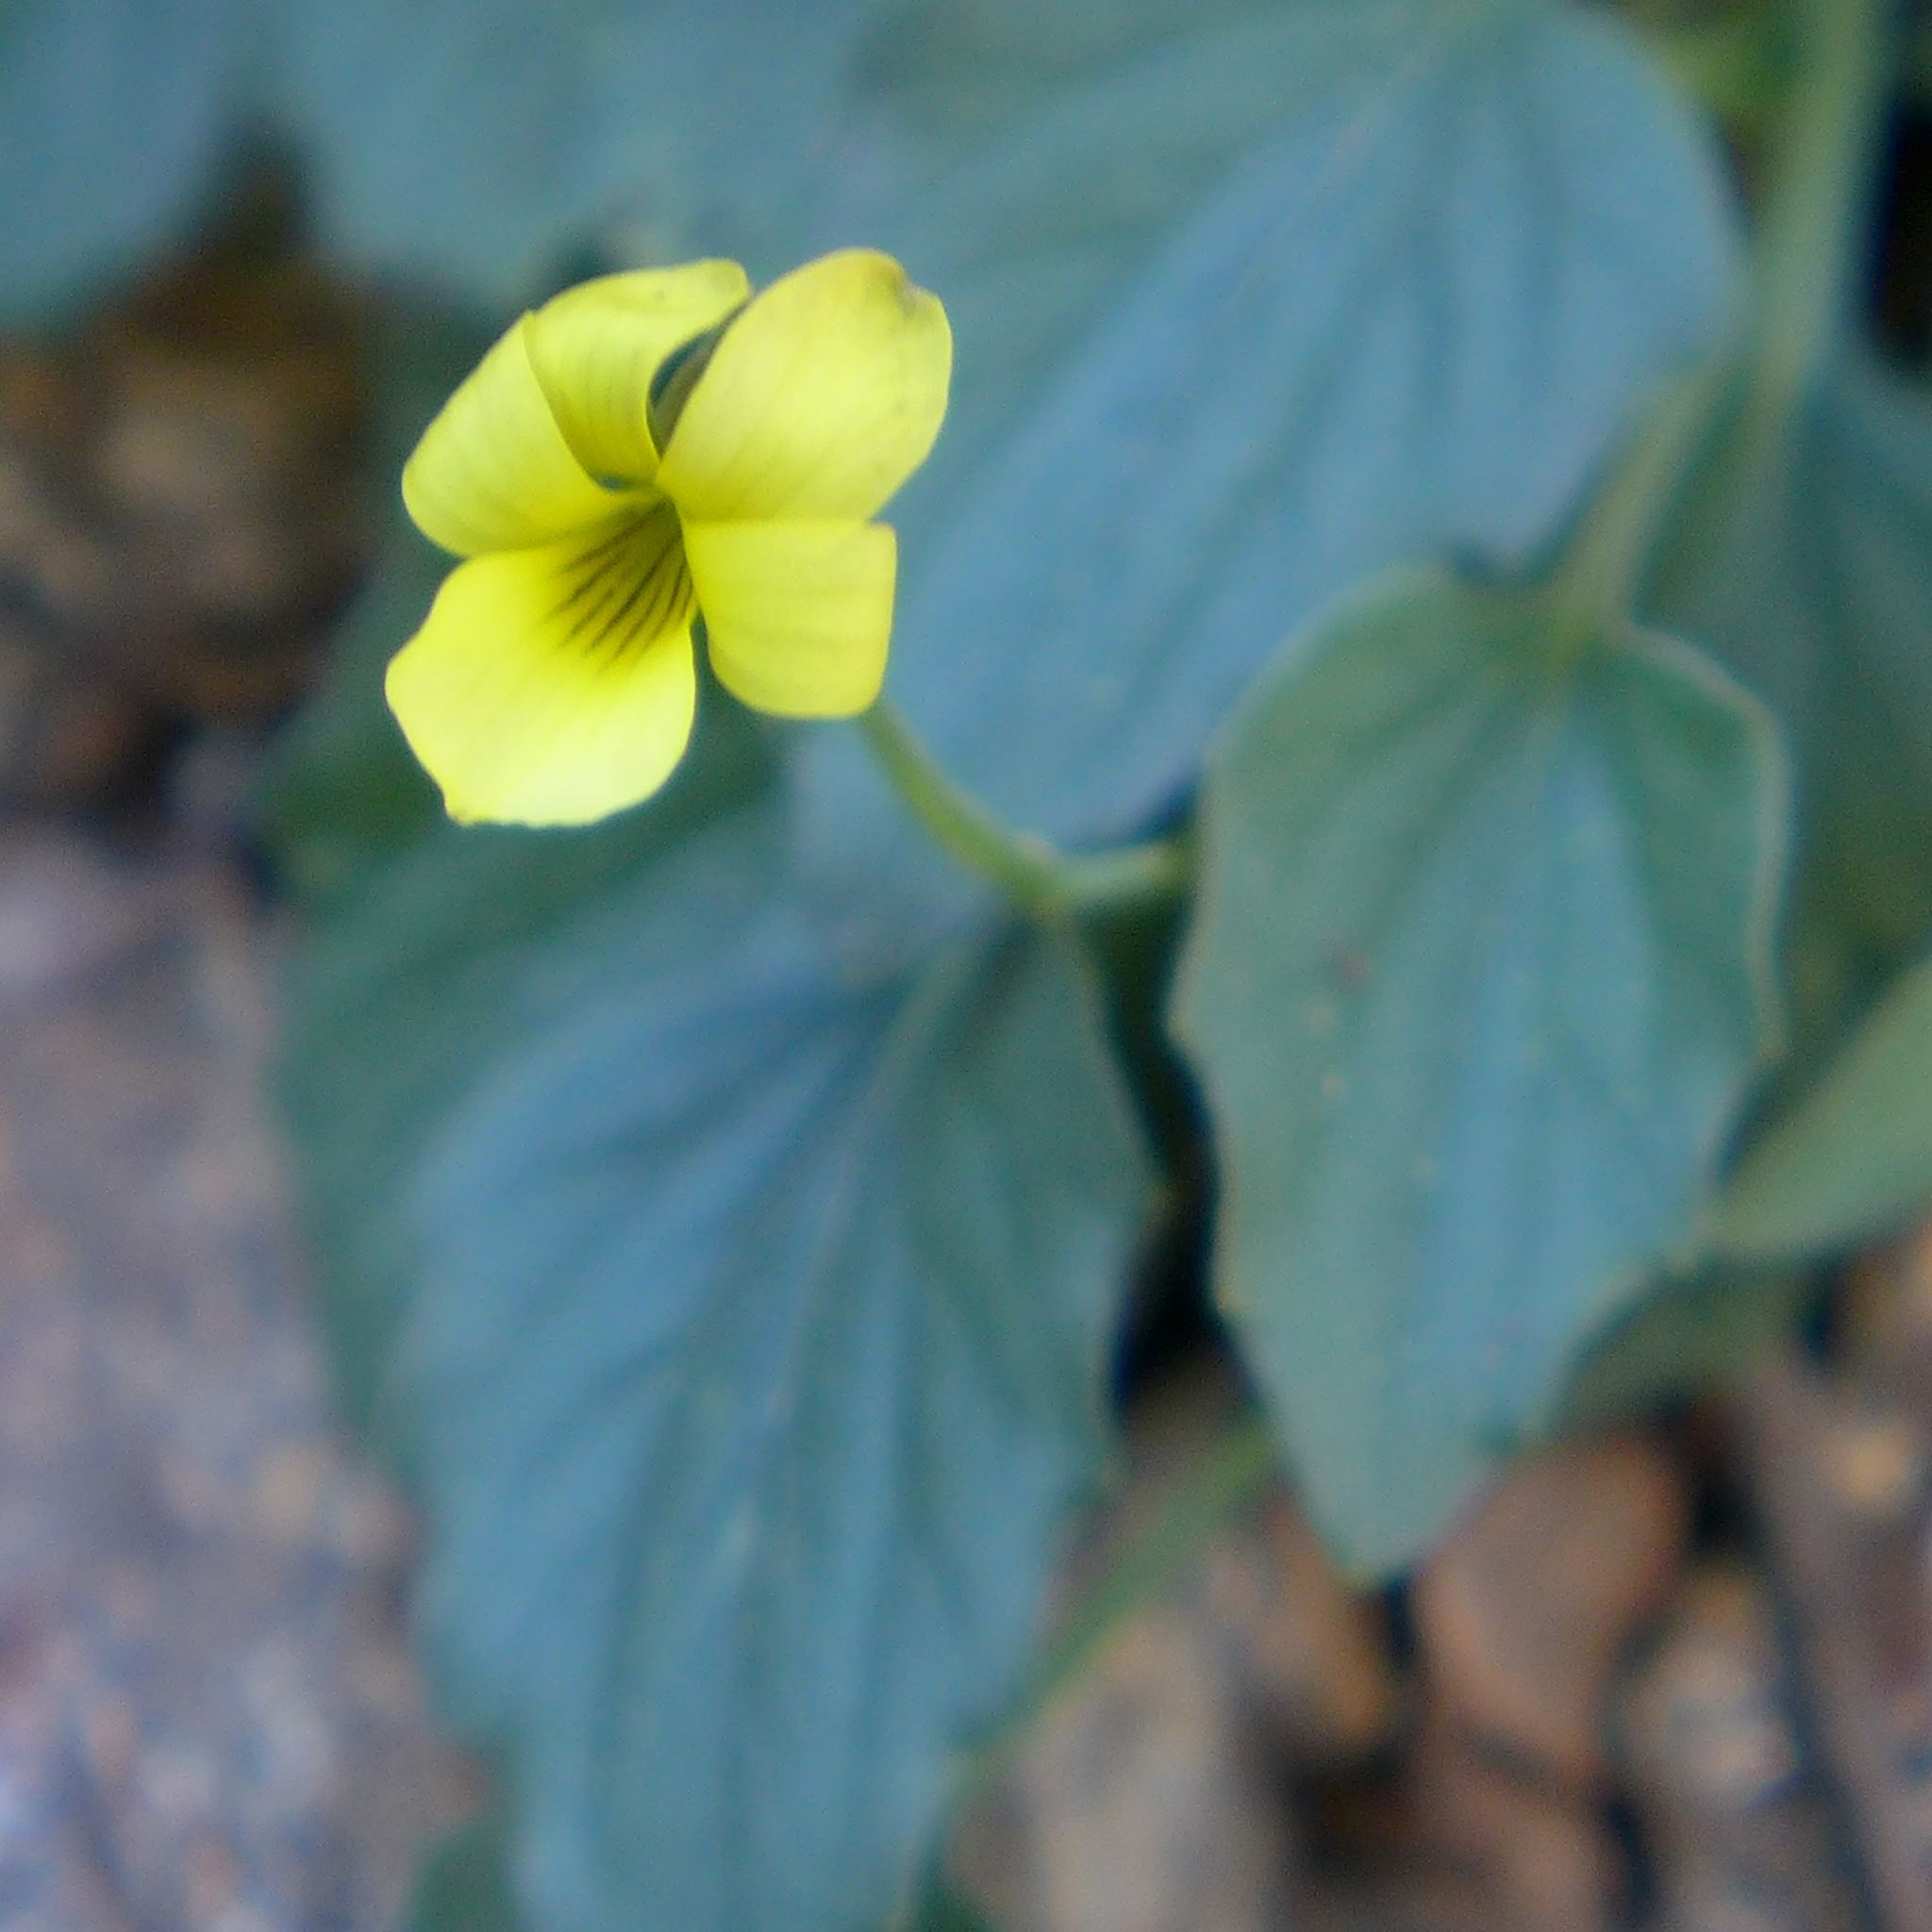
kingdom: Plantae
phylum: Tracheophyta
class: Magnoliopsida
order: Malpighiales
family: Violaceae
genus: Viola
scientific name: Viola purpurea
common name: Pine violet
